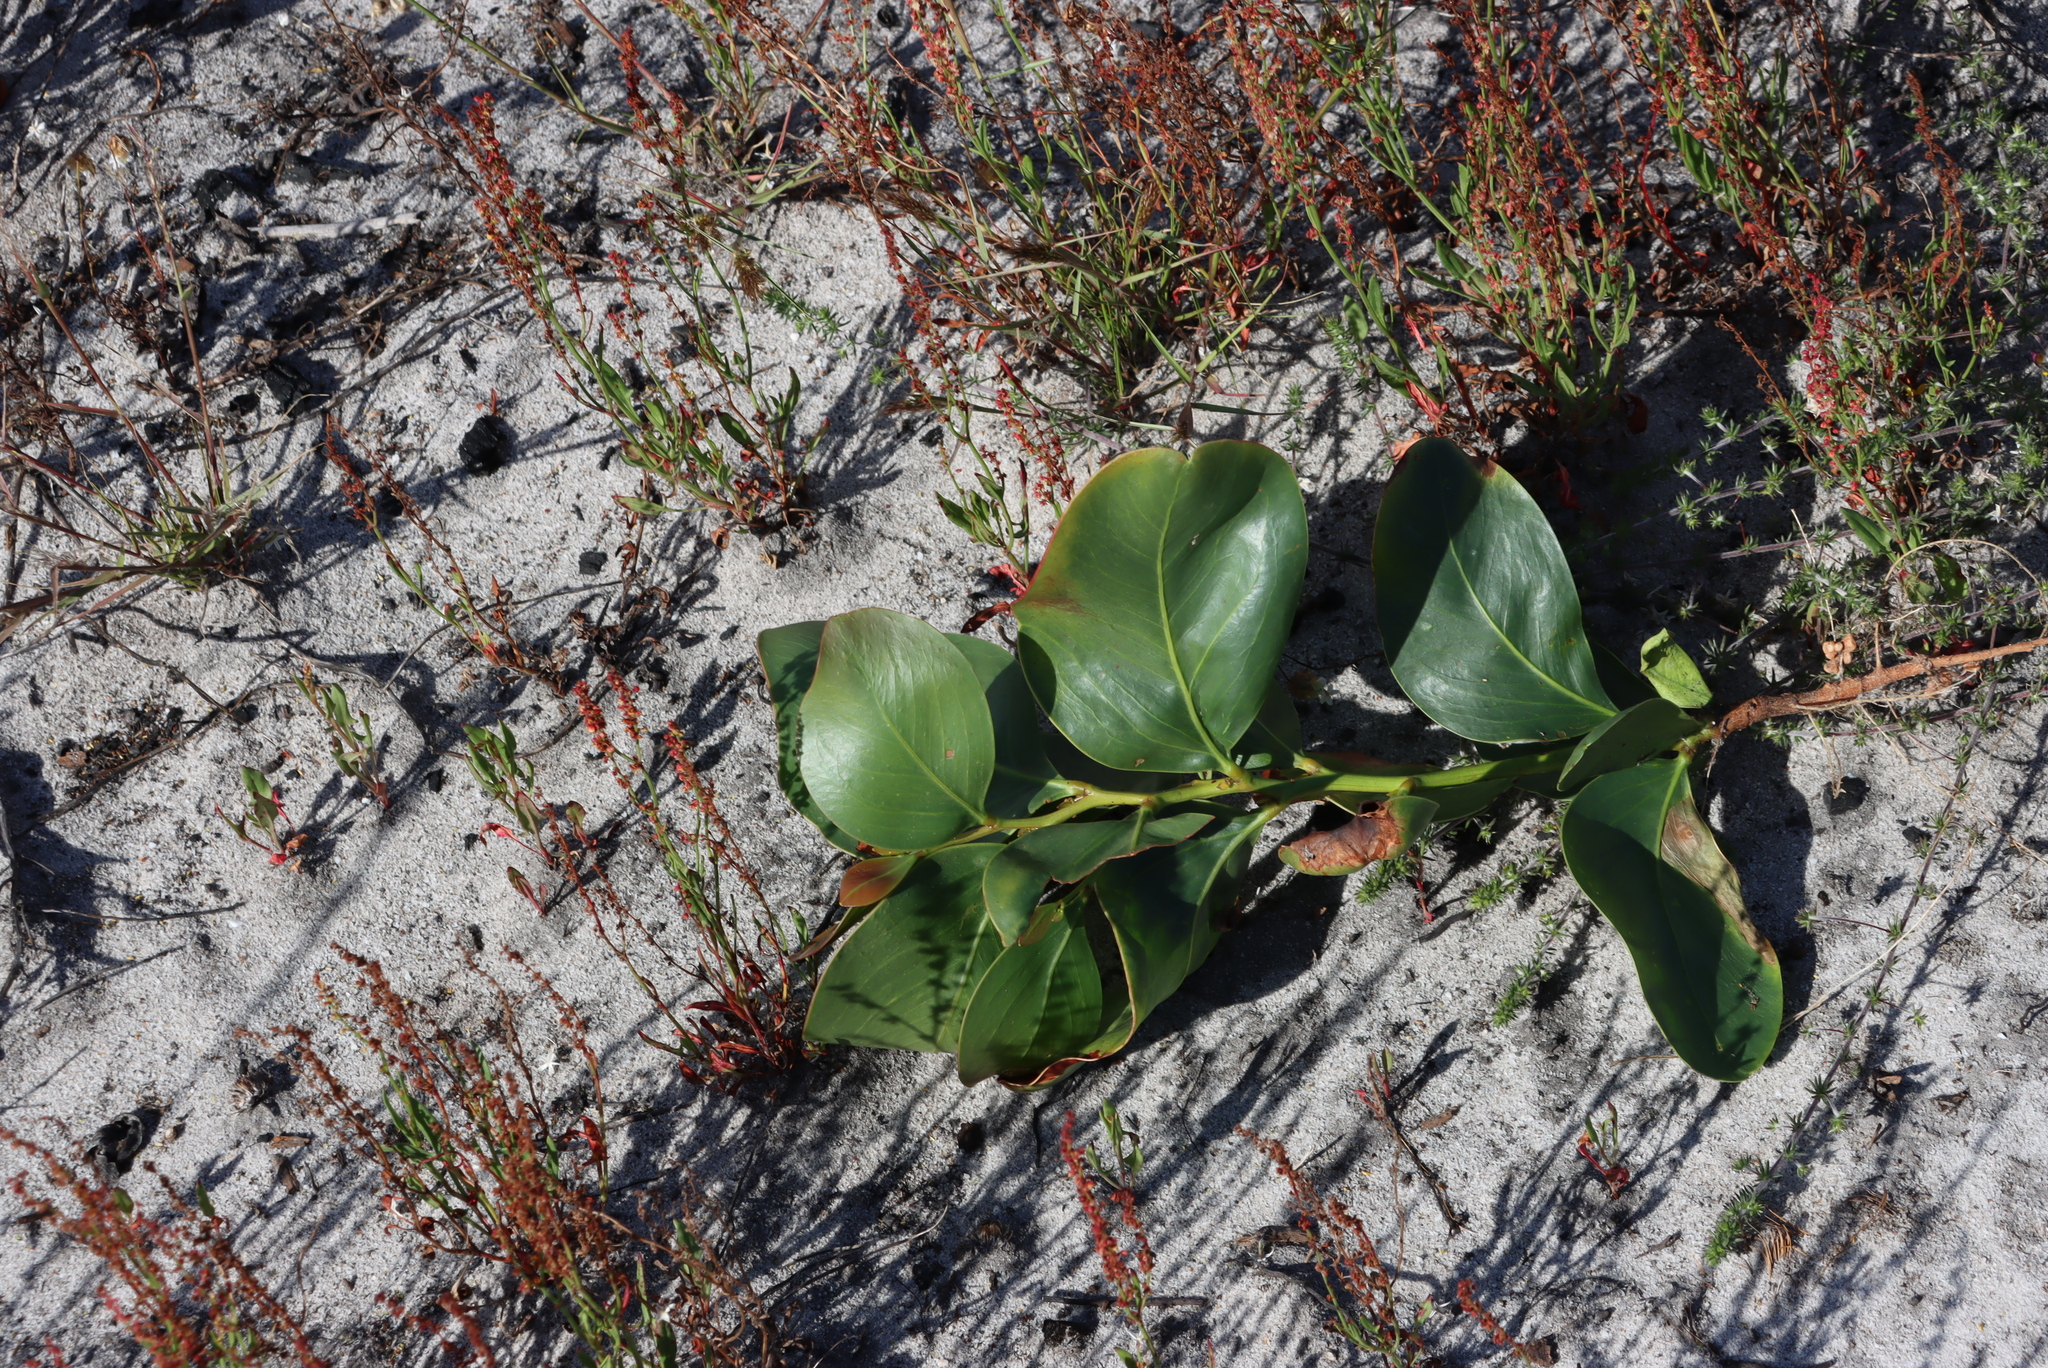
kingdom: Plantae
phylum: Tracheophyta
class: Magnoliopsida
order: Fabales
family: Fabaceae
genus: Acacia
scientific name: Acacia pycnantha
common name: Golden wattle
